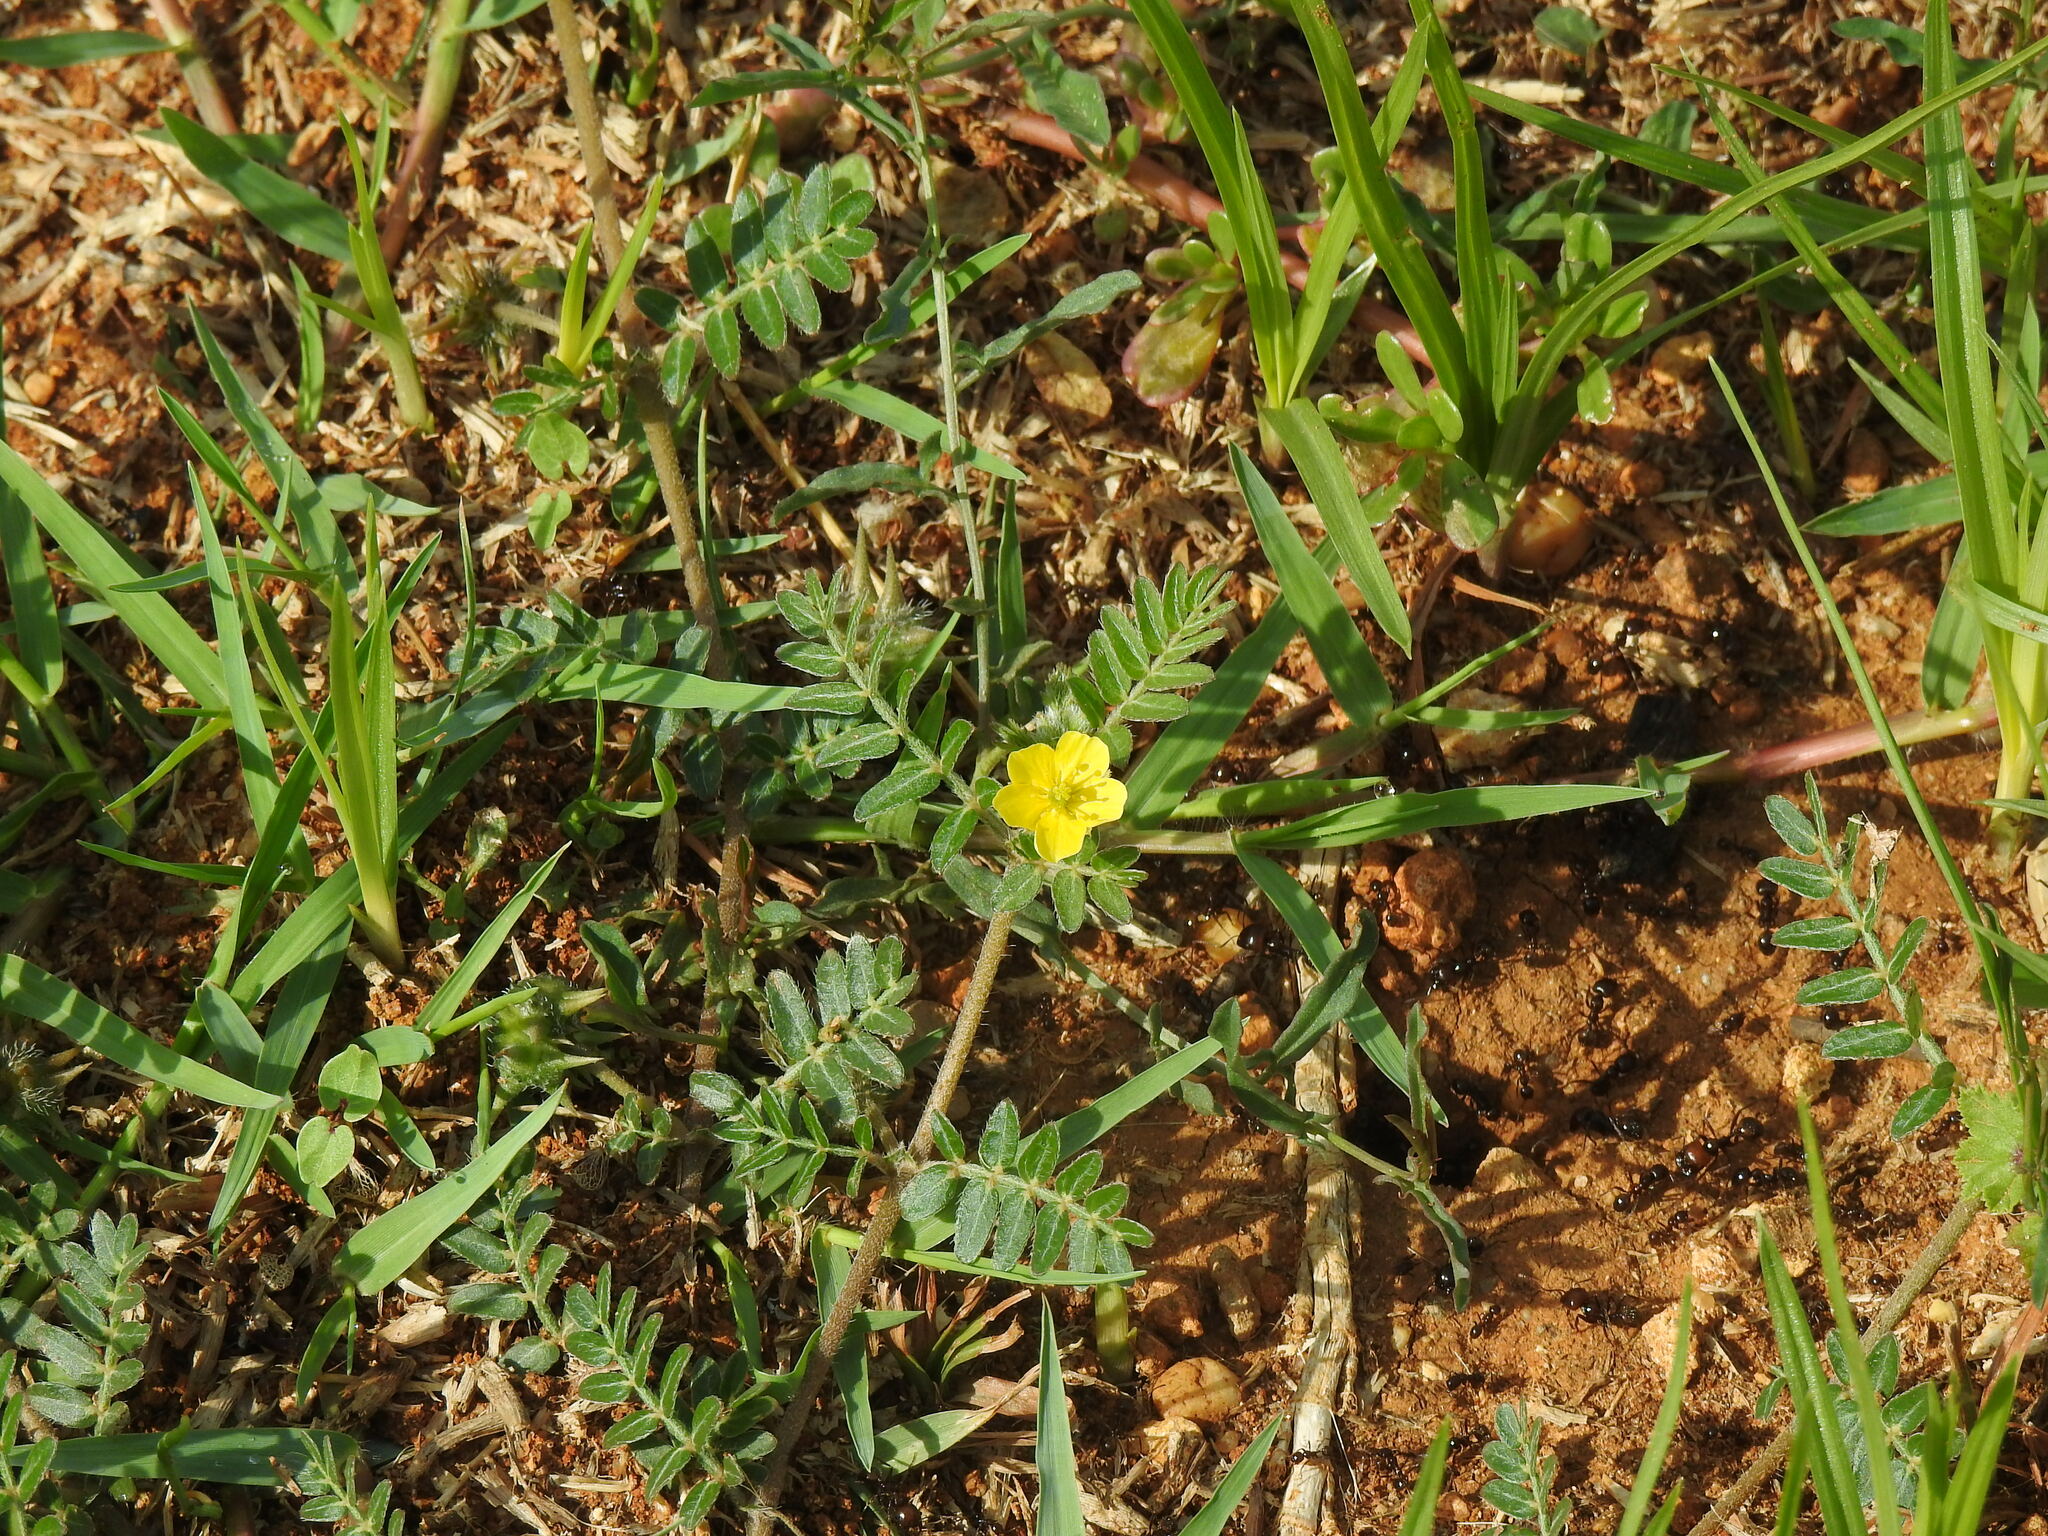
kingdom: Plantae
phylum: Tracheophyta
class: Magnoliopsida
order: Zygophyllales
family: Zygophyllaceae
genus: Tribulus
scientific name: Tribulus terrestris
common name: Puncturevine
